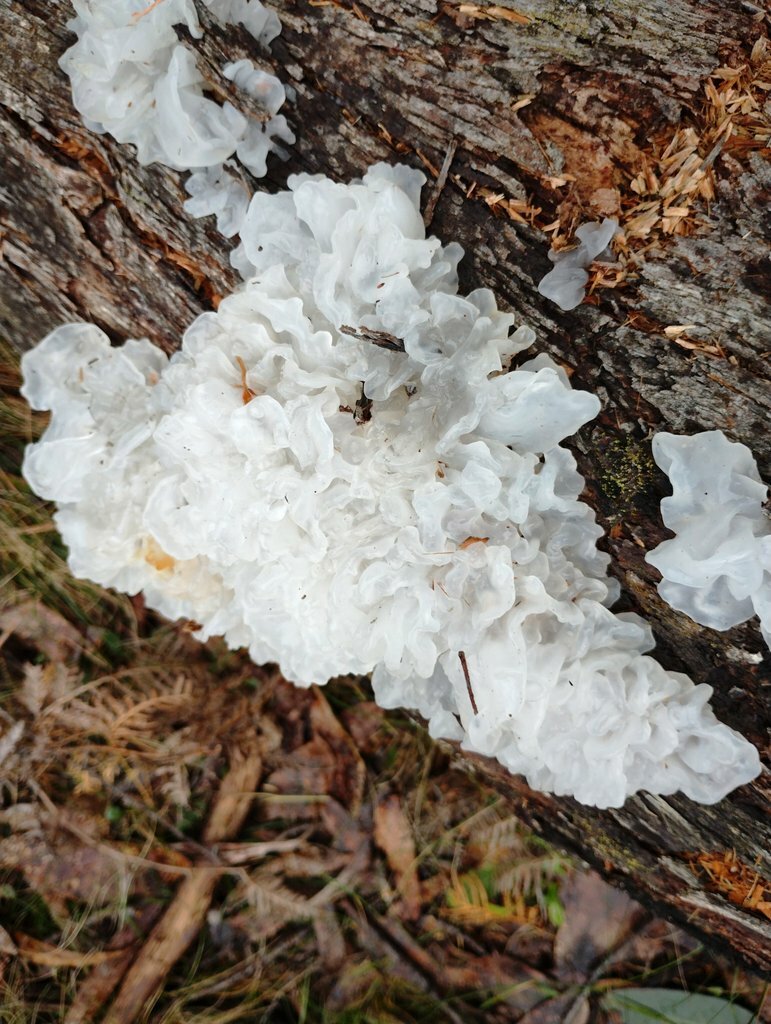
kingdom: Fungi
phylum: Basidiomycota
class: Tremellomycetes
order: Tremellales
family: Tremellaceae
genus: Tremella
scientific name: Tremella fuciformis
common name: Snow fungus
